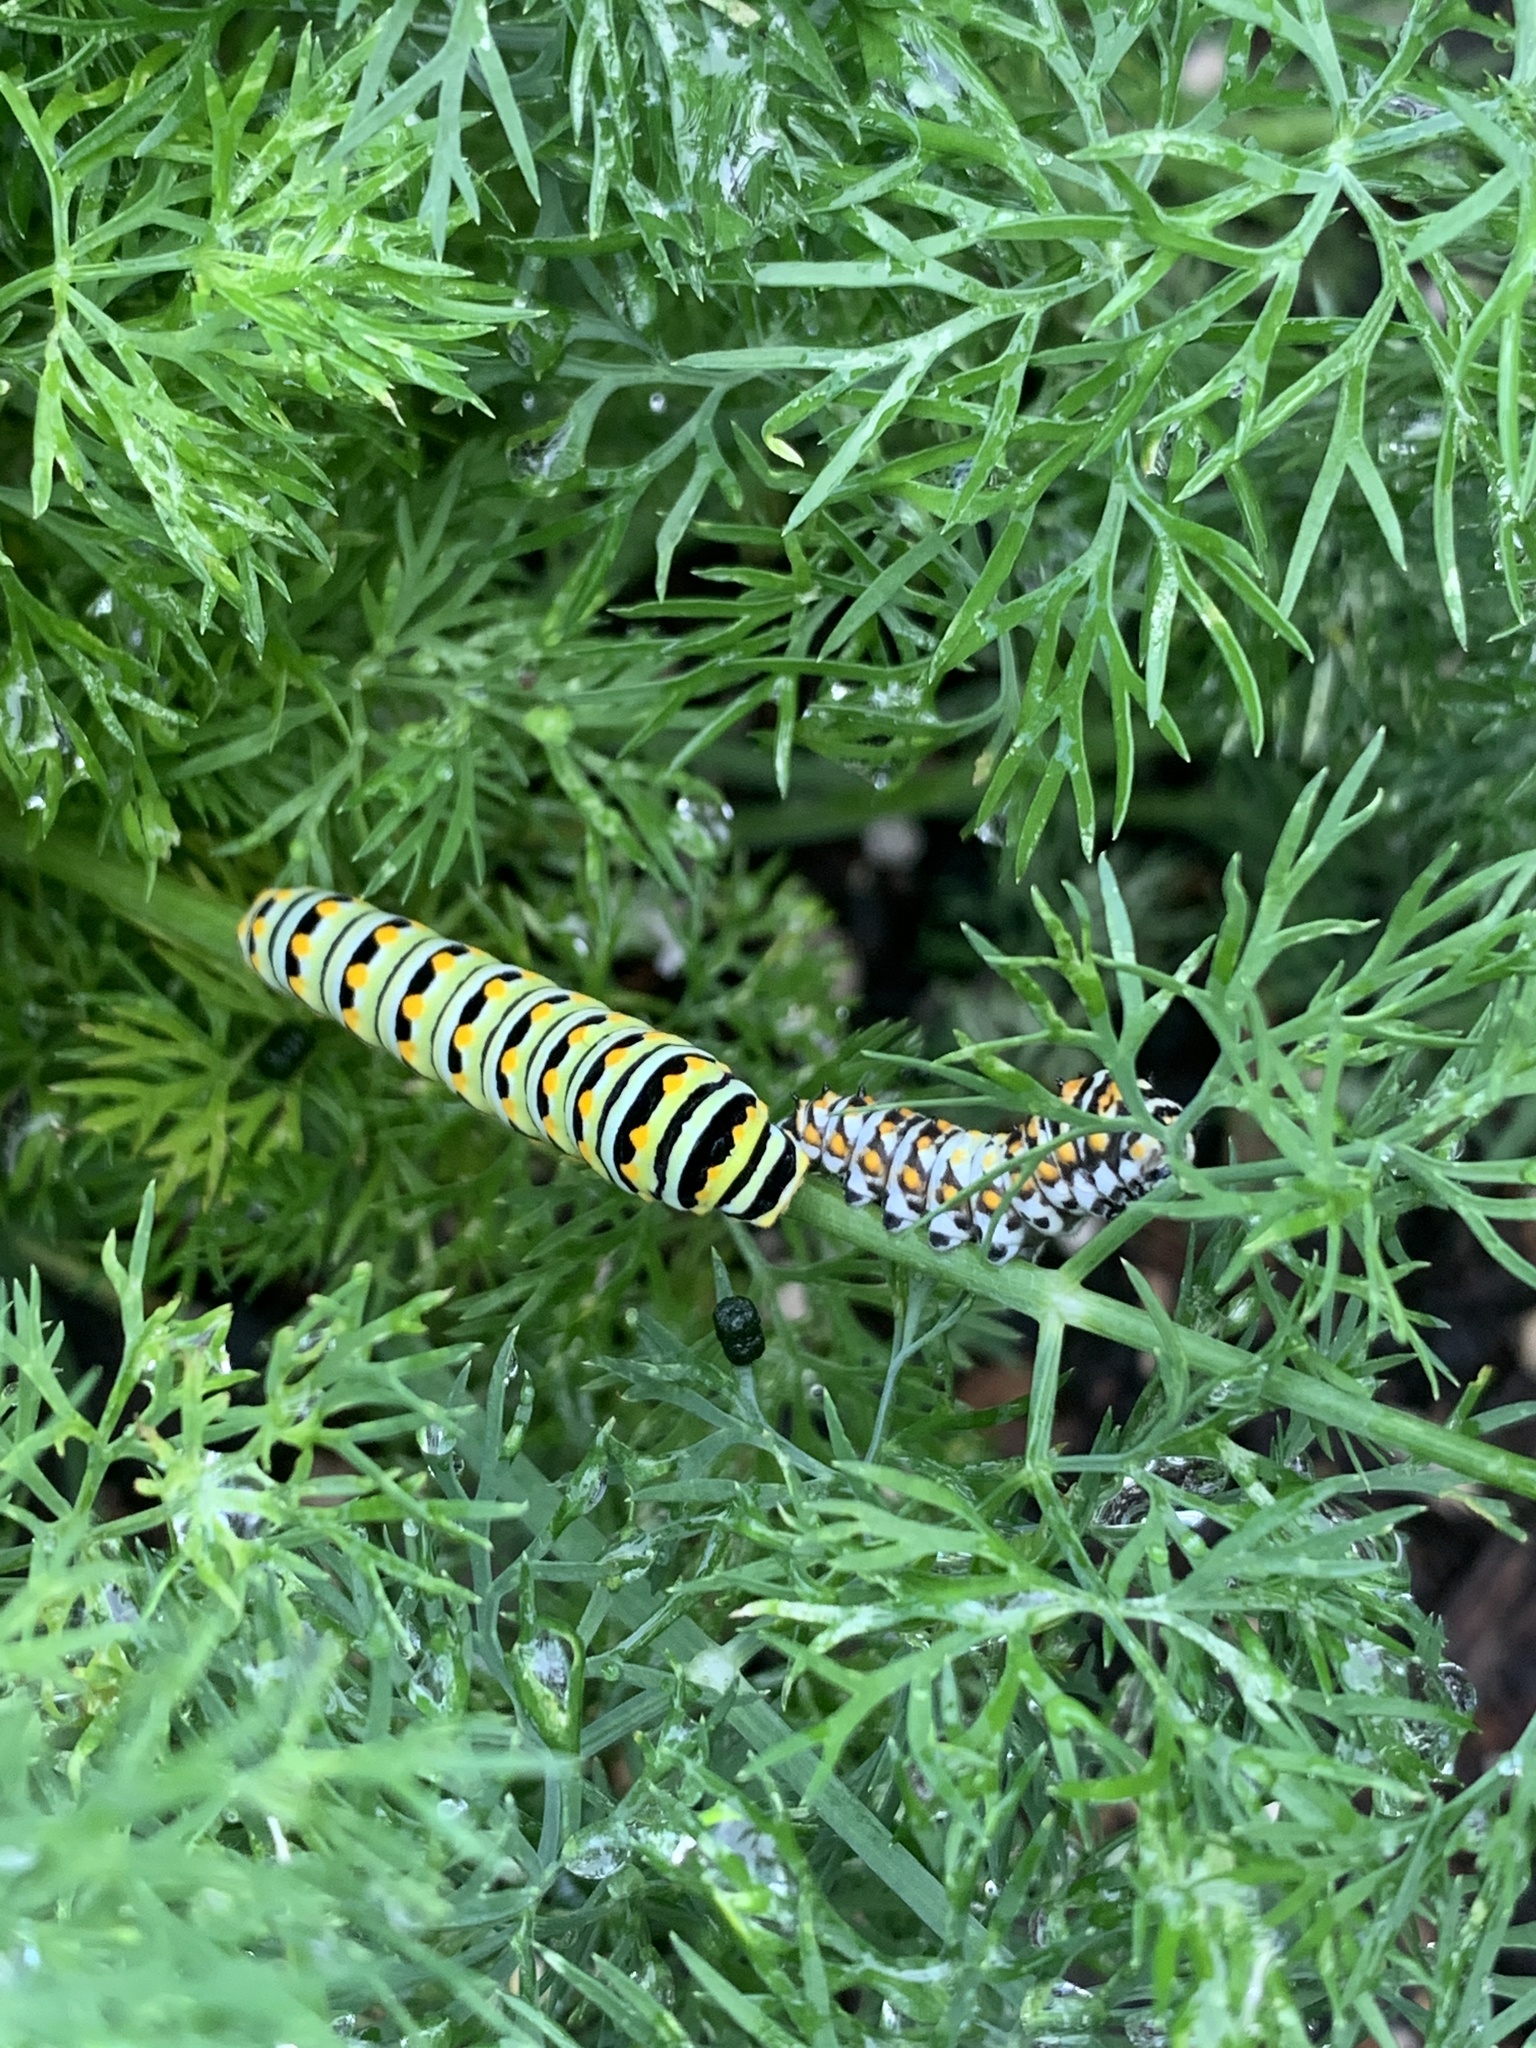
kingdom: Animalia
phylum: Arthropoda
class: Insecta
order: Lepidoptera
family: Papilionidae
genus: Papilio
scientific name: Papilio polyxenes
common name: Black swallowtail
